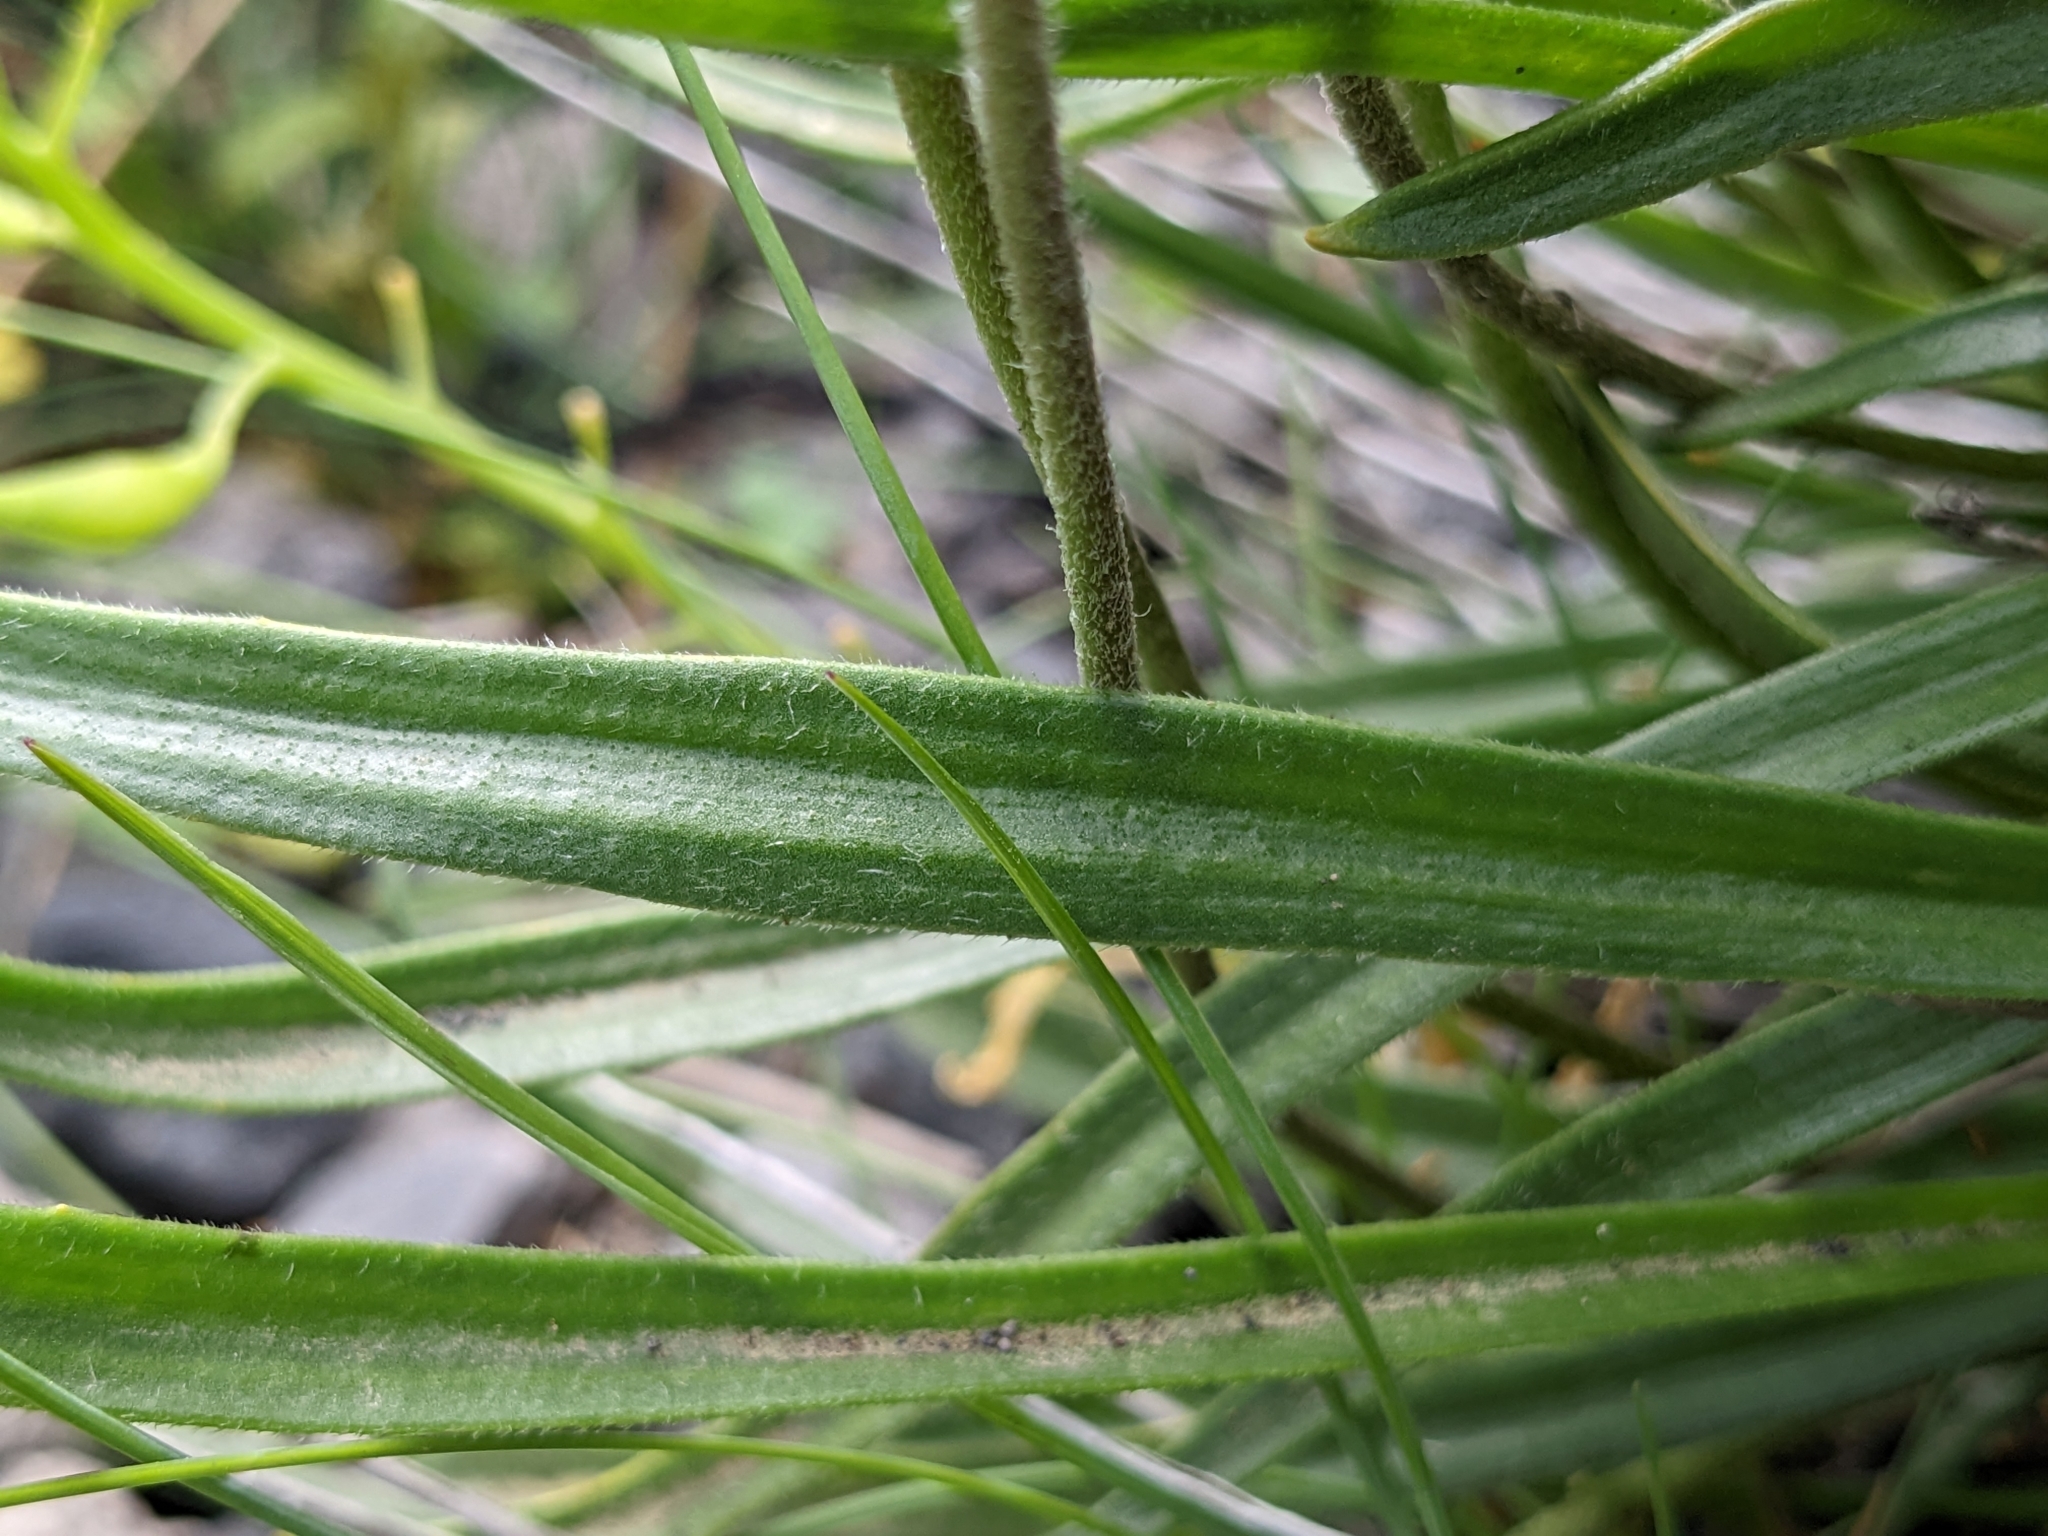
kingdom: Plantae
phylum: Tracheophyta
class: Magnoliopsida
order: Lamiales
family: Plantaginaceae
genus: Plantago
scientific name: Plantago maritima
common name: Sea plantain
